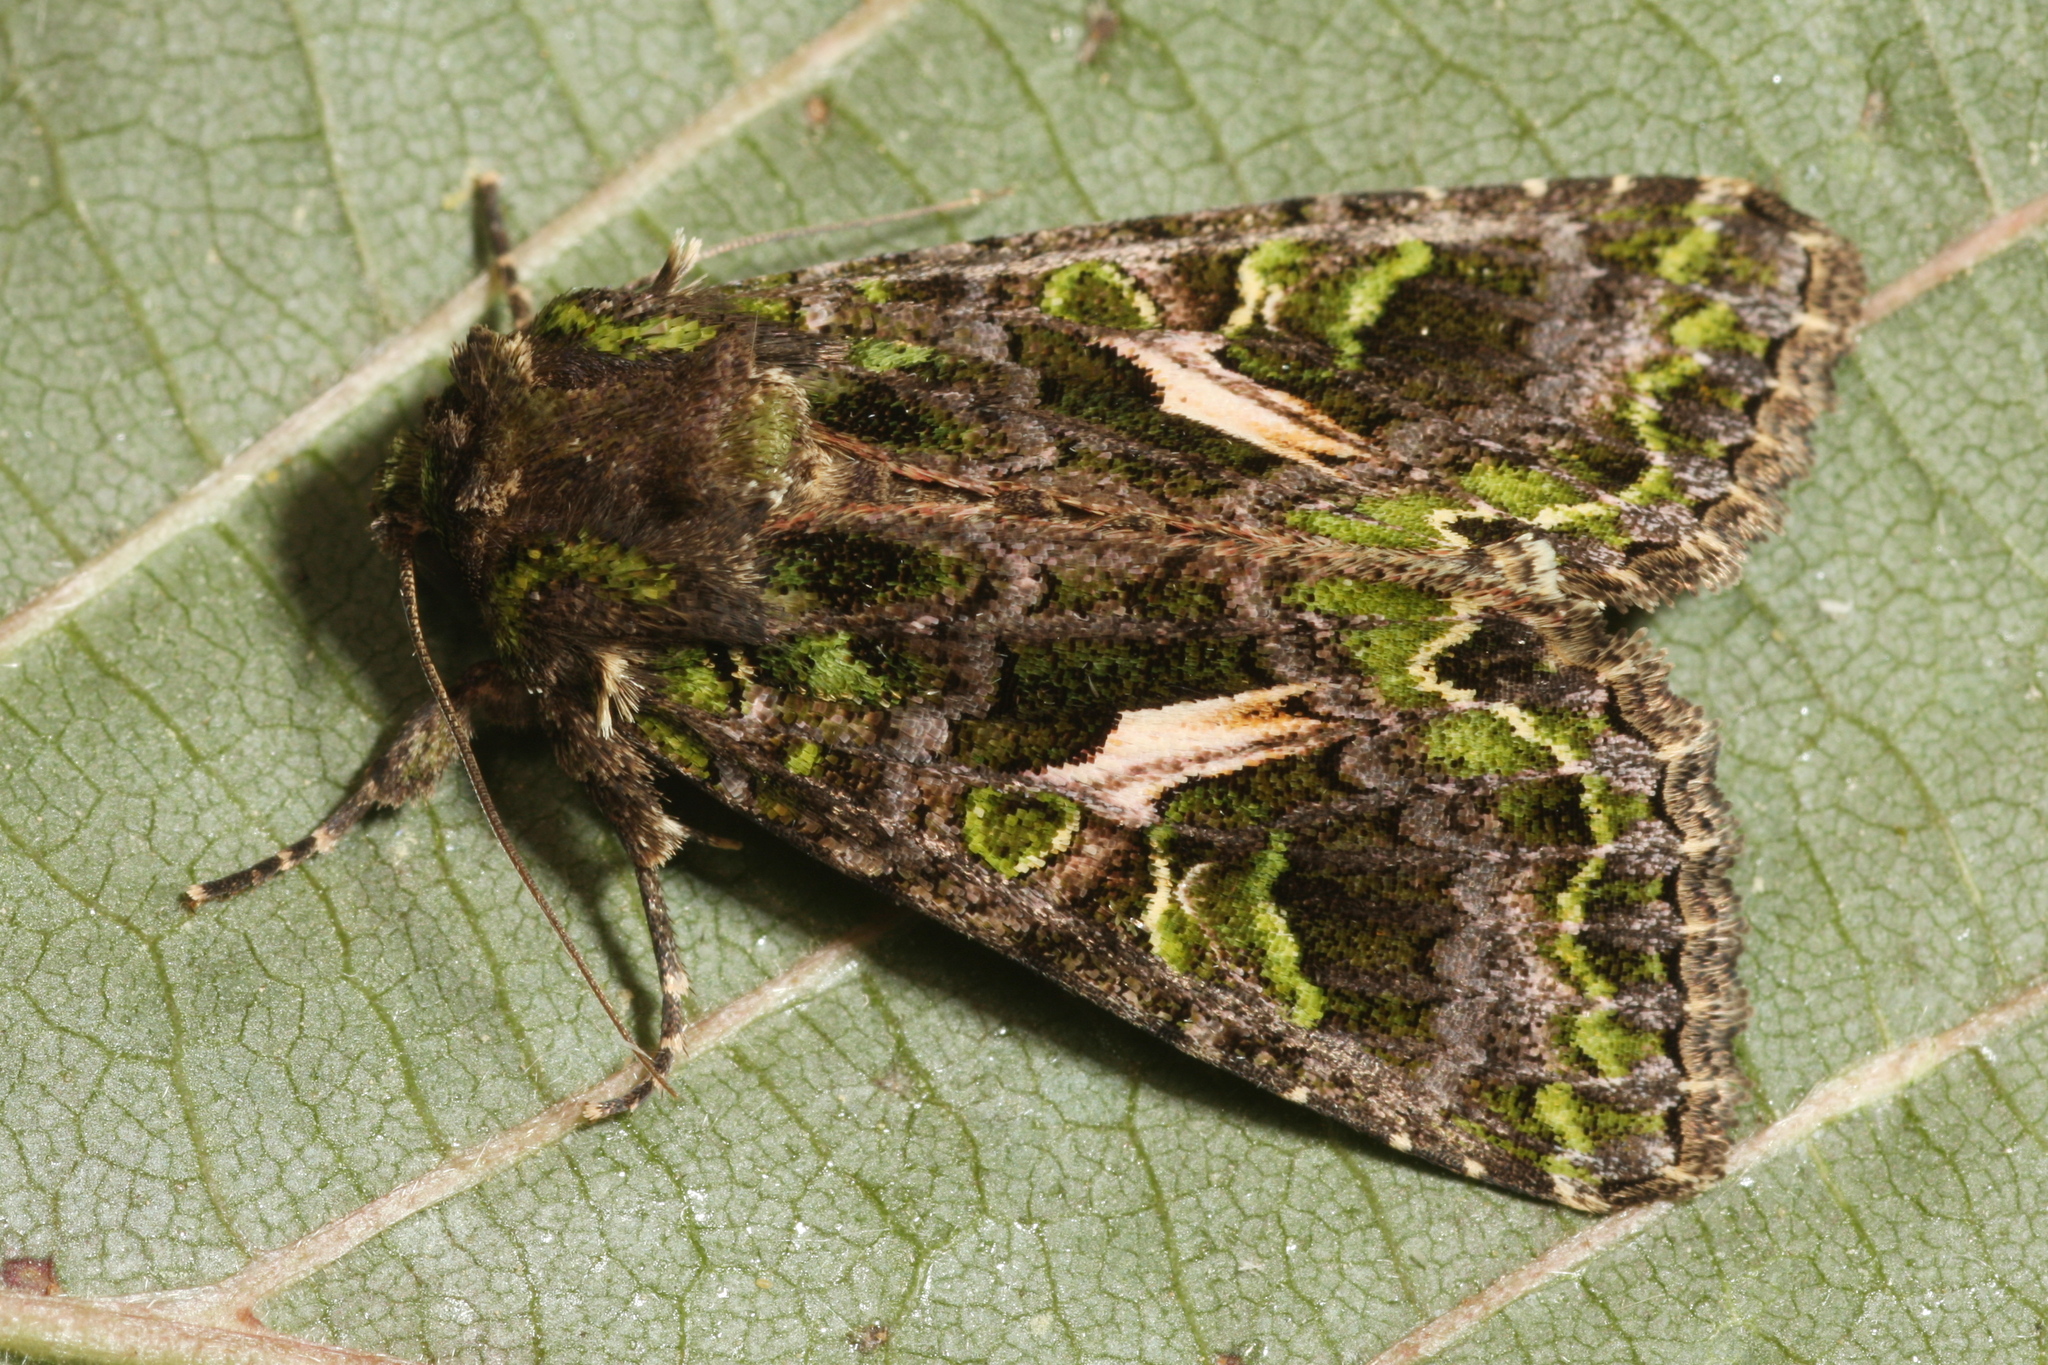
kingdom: Animalia
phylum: Arthropoda
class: Insecta
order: Lepidoptera
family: Noctuidae
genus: Trachea
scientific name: Trachea atriplicis
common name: Orache moth
